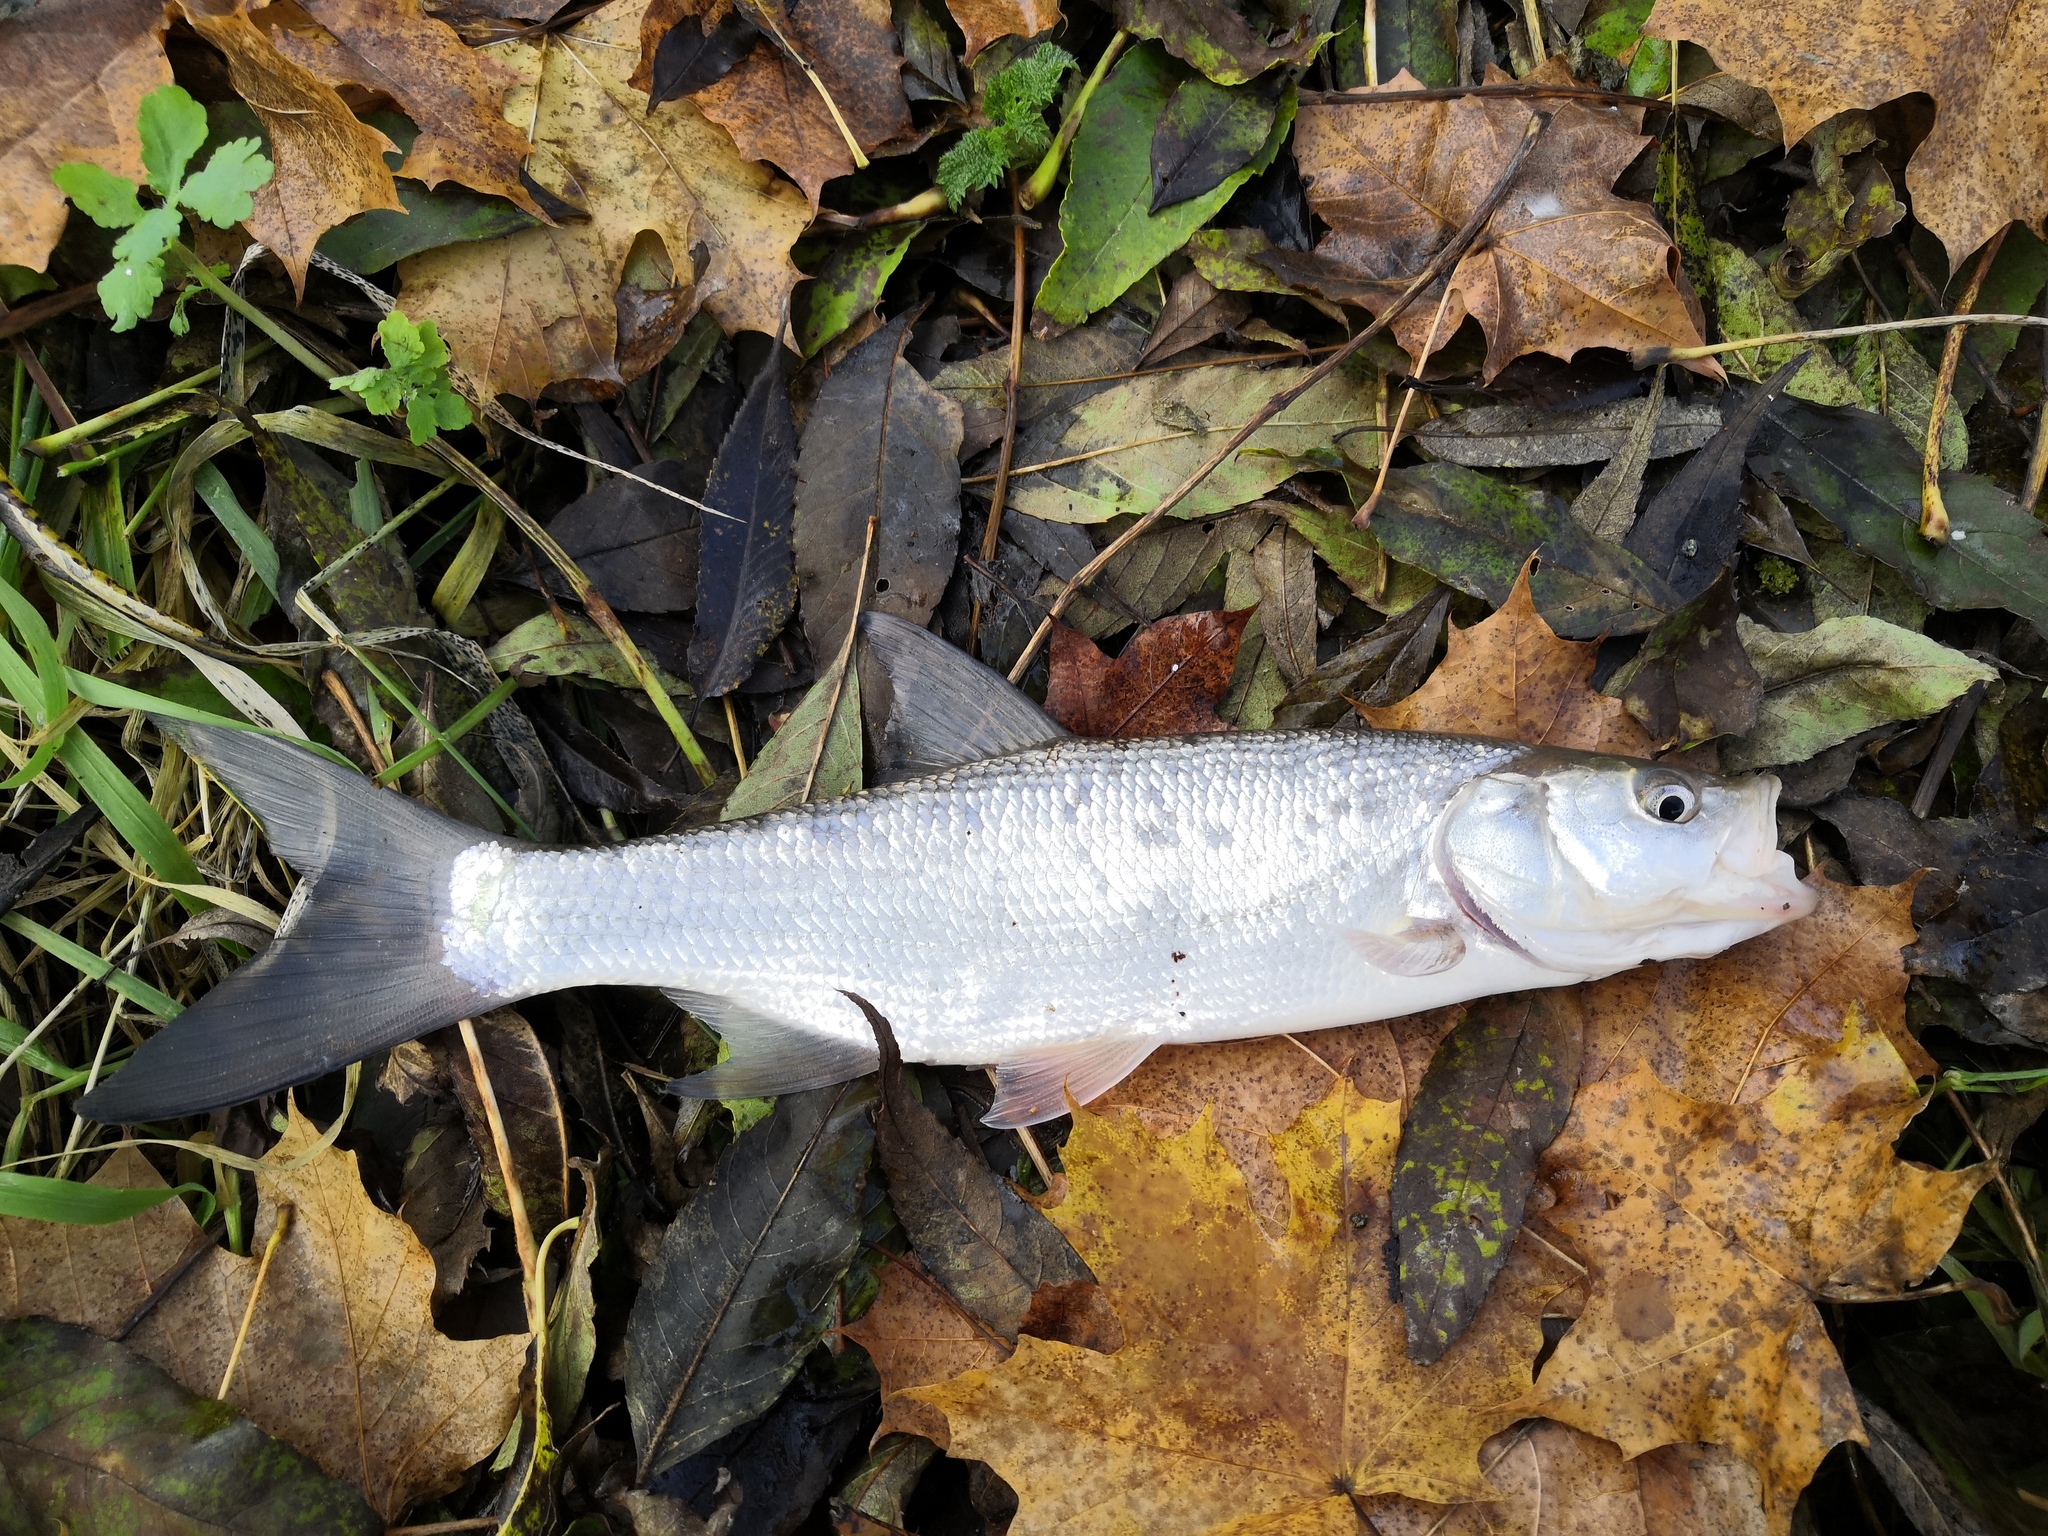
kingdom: Animalia
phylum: Chordata
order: Cypriniformes
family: Cyprinidae
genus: Leuciscus
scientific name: Leuciscus aspius
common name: Asp
